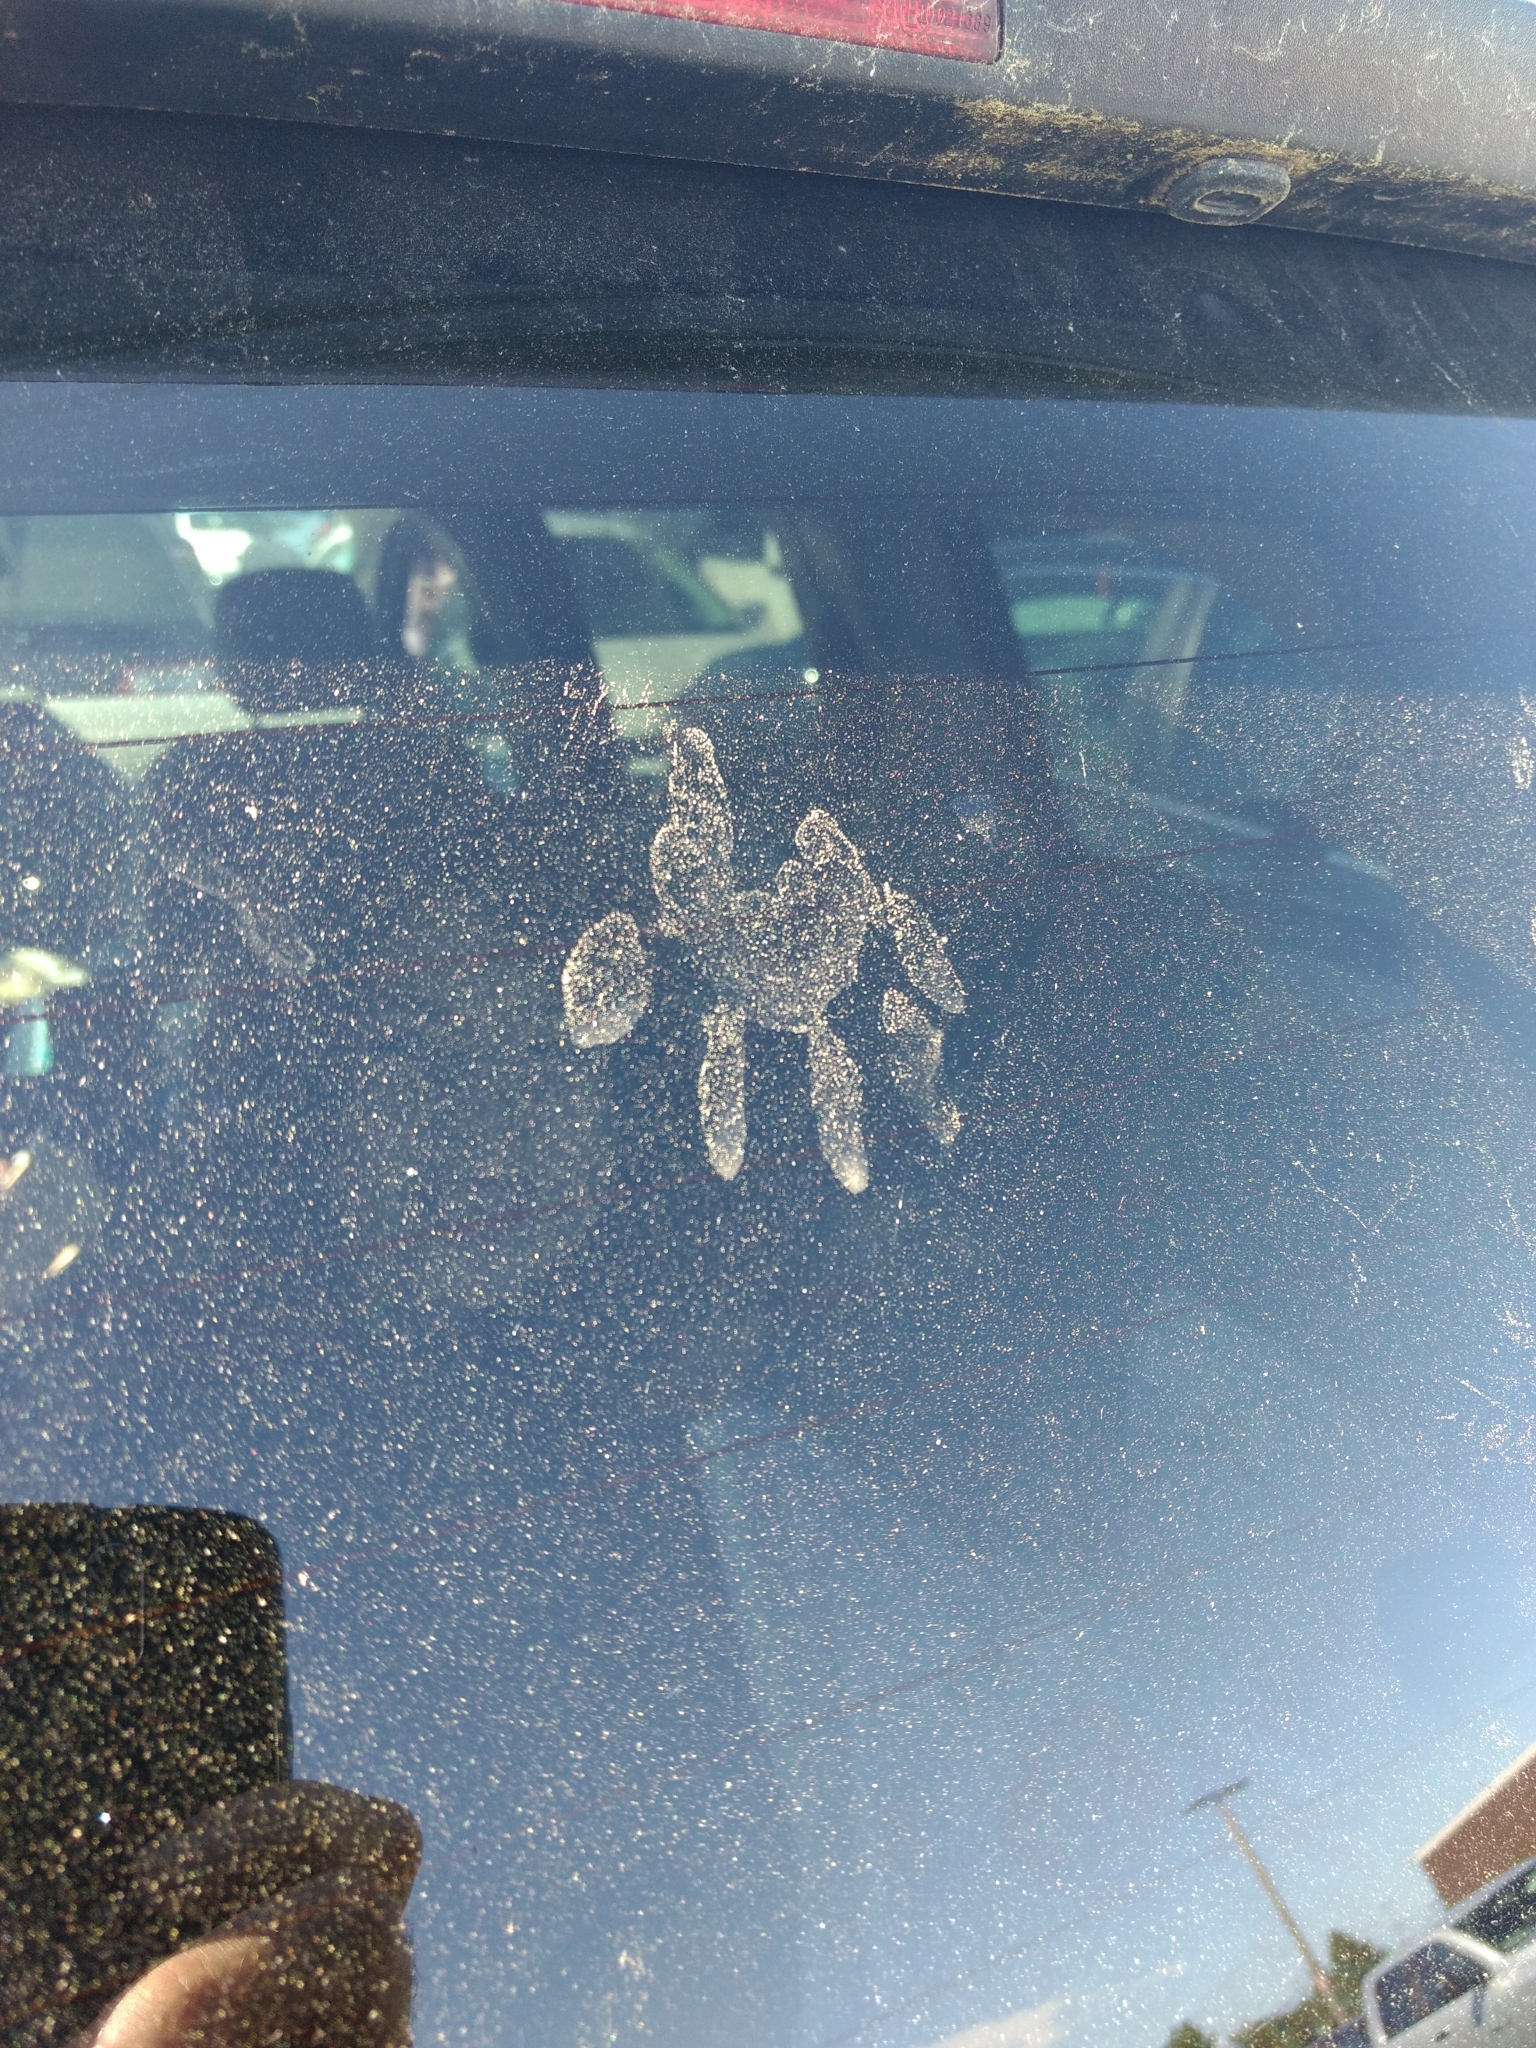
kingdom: Animalia
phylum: Chordata
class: Mammalia
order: Carnivora
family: Procyonidae
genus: Procyon
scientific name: Procyon lotor
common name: Raccoon
